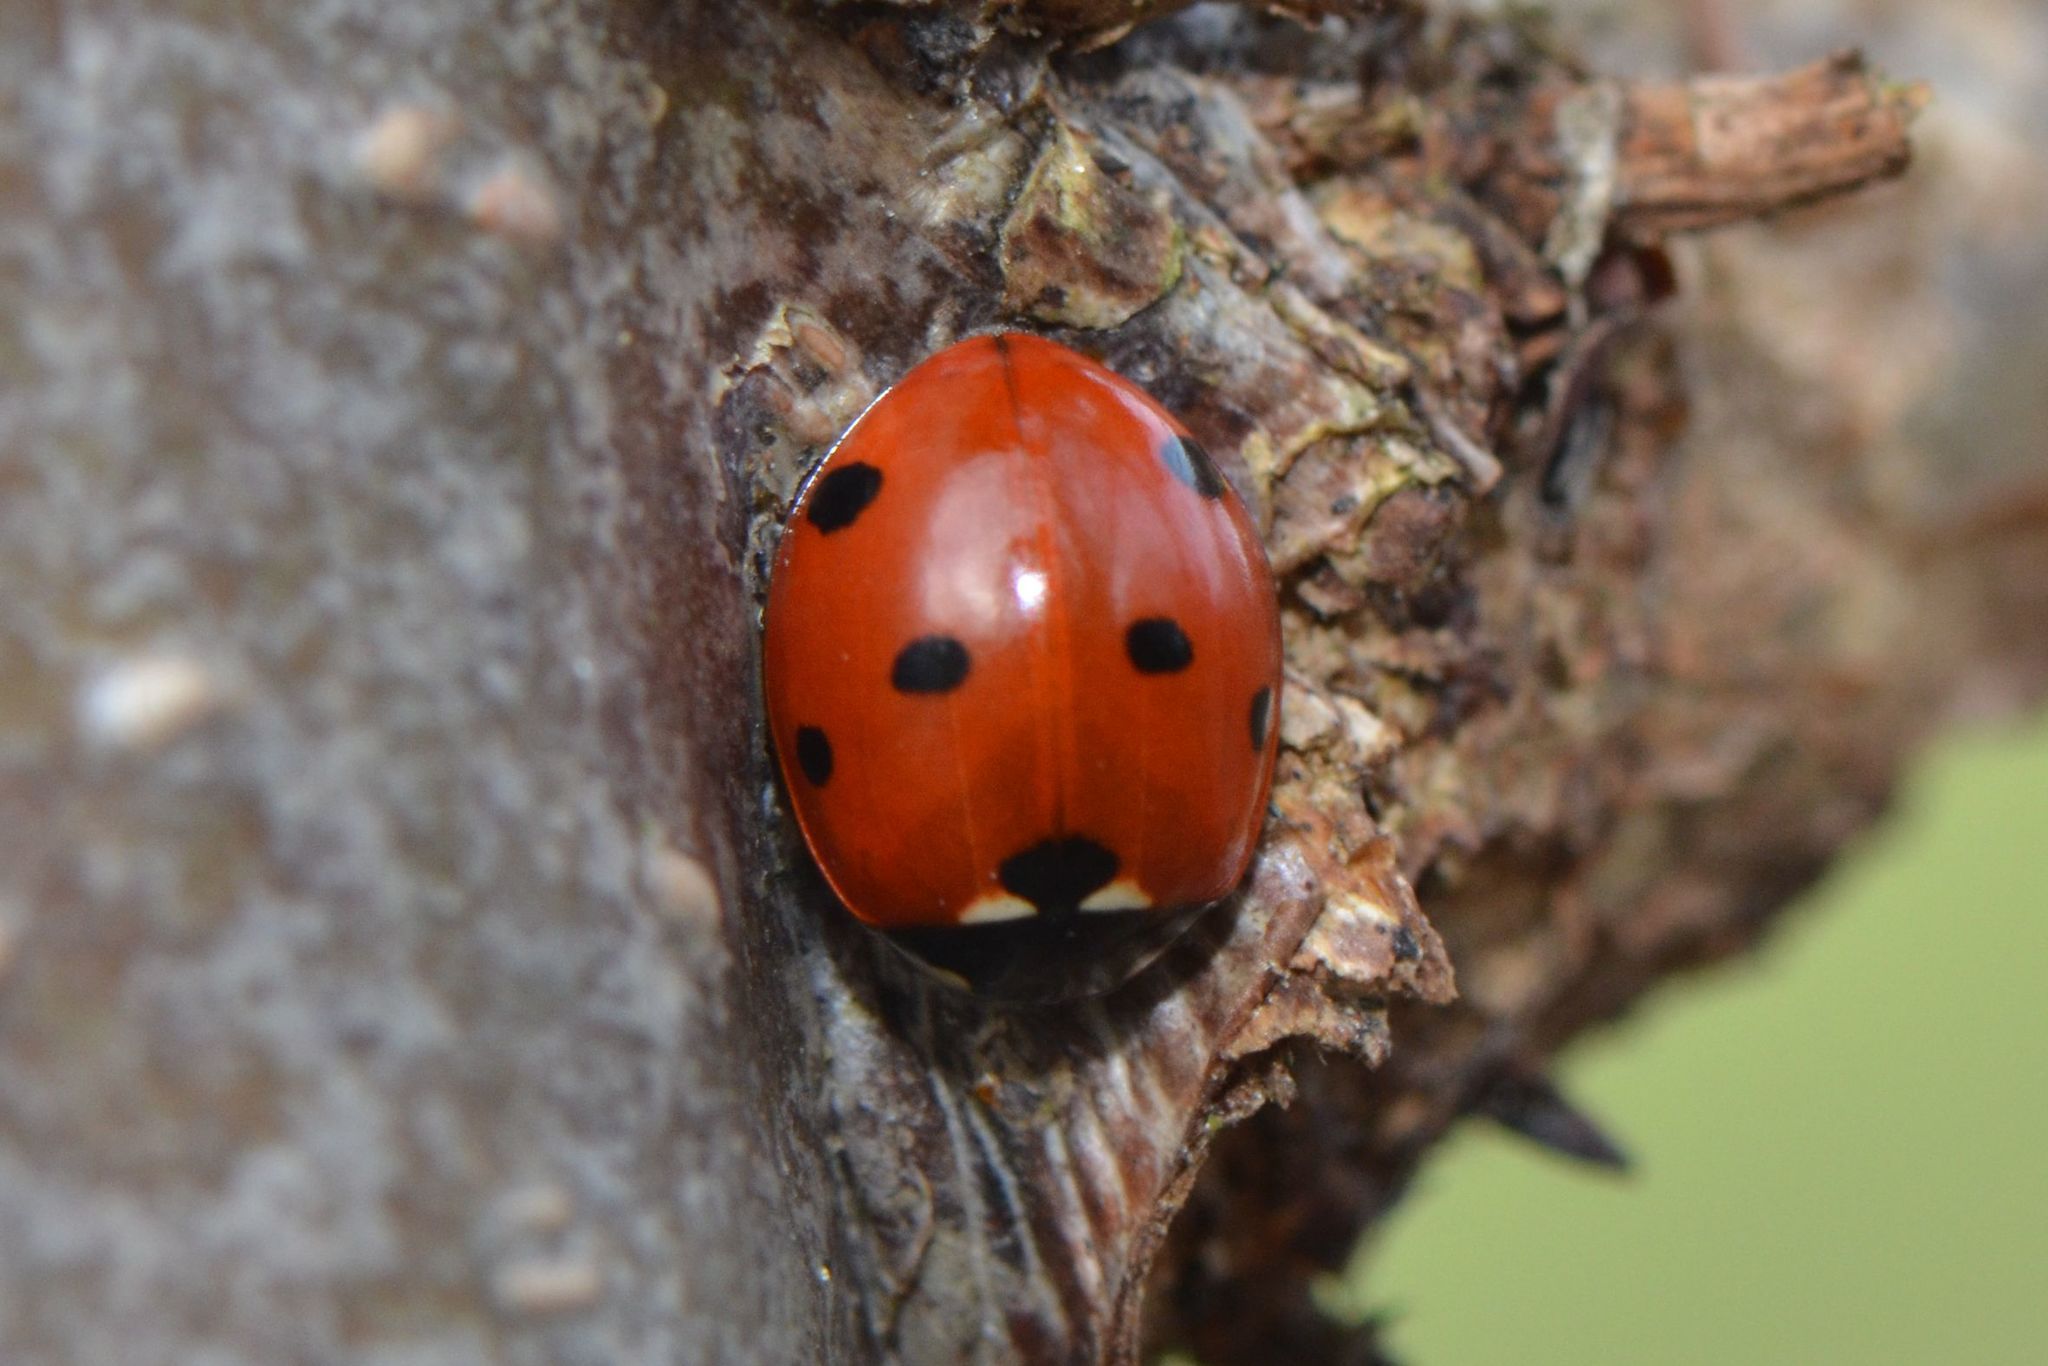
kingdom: Animalia
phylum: Arthropoda
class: Insecta
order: Coleoptera
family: Coccinellidae
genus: Coccinella
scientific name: Coccinella septempunctata
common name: Sevenspotted lady beetle
